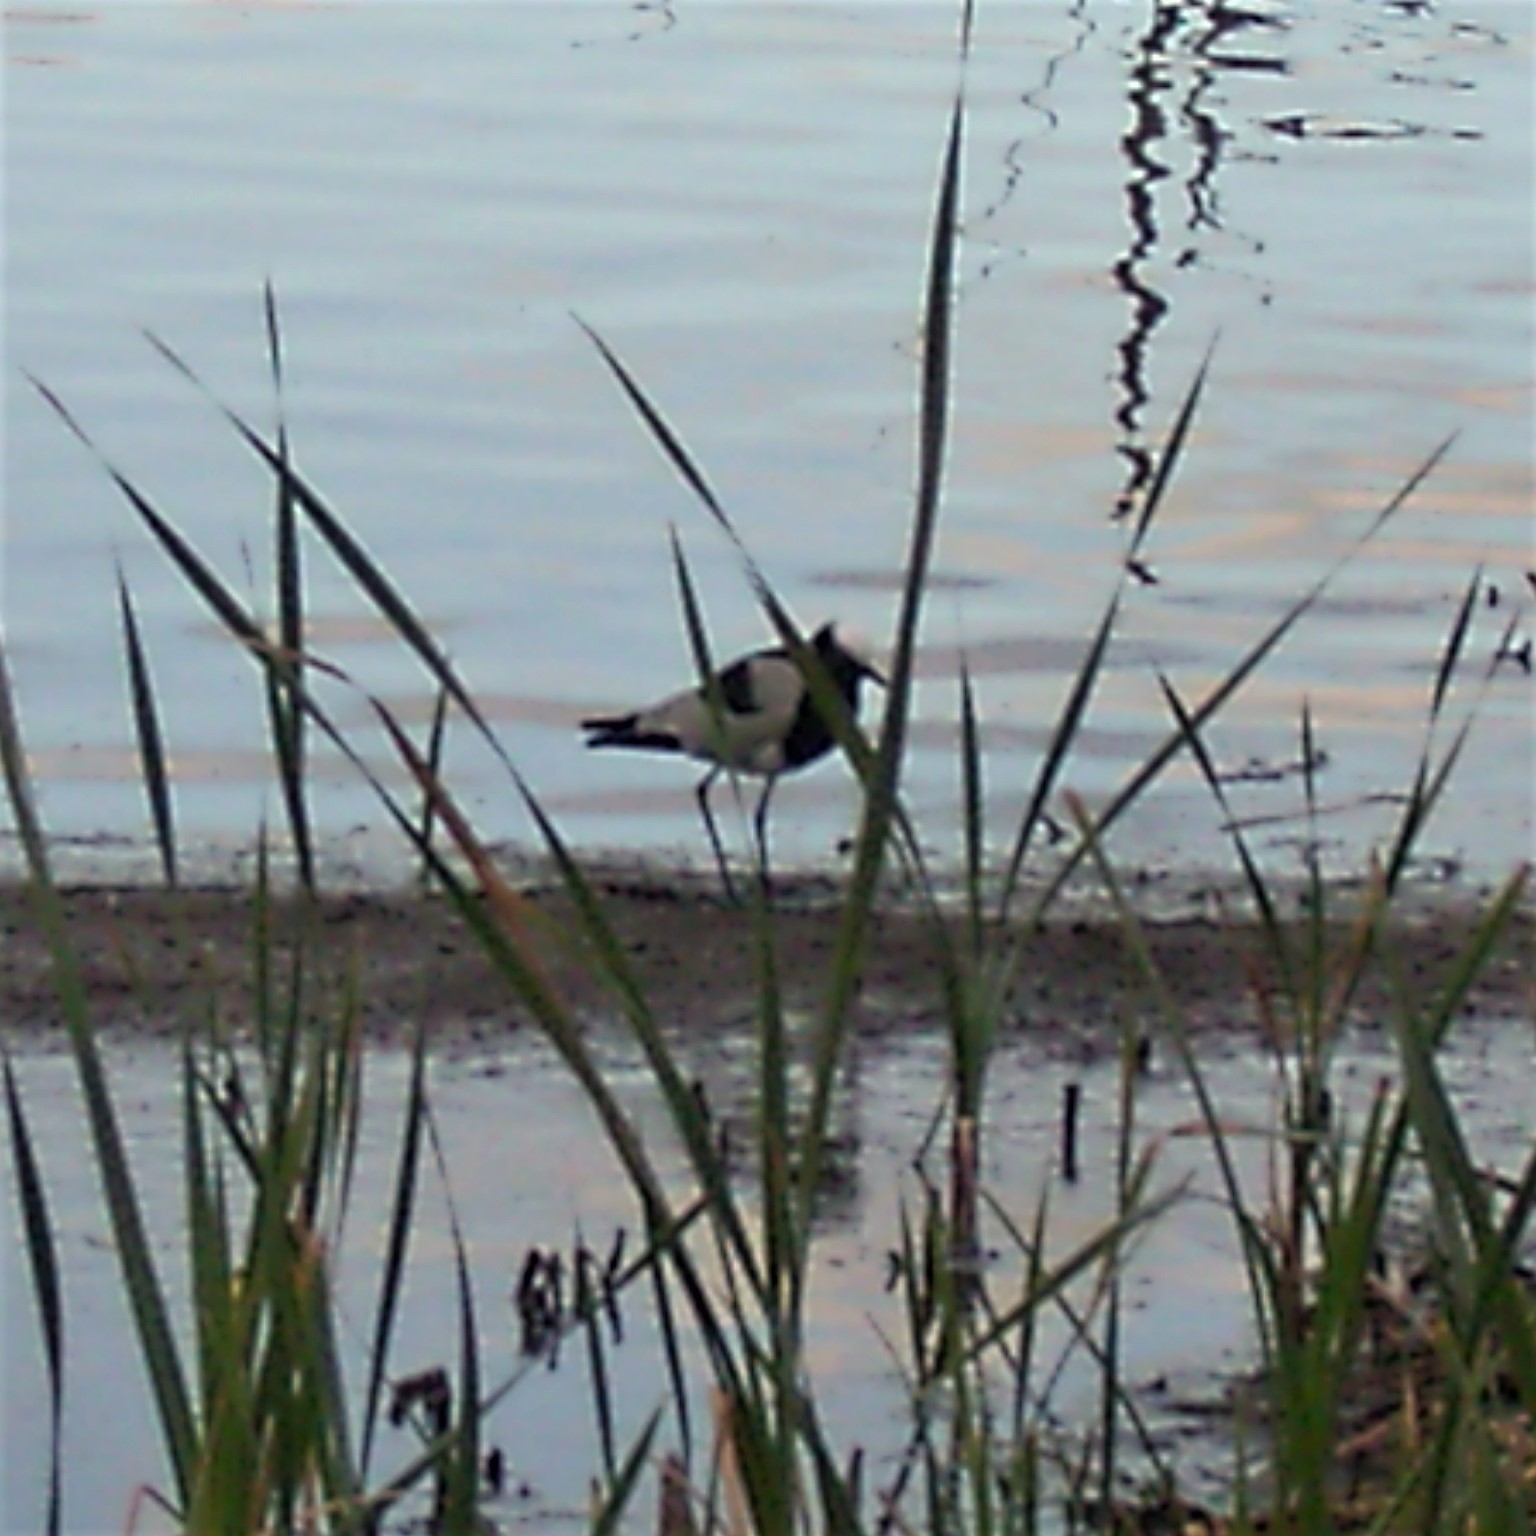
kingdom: Animalia
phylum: Chordata
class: Aves
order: Charadriiformes
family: Charadriidae
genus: Vanellus
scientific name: Vanellus armatus
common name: Blacksmith lapwing
